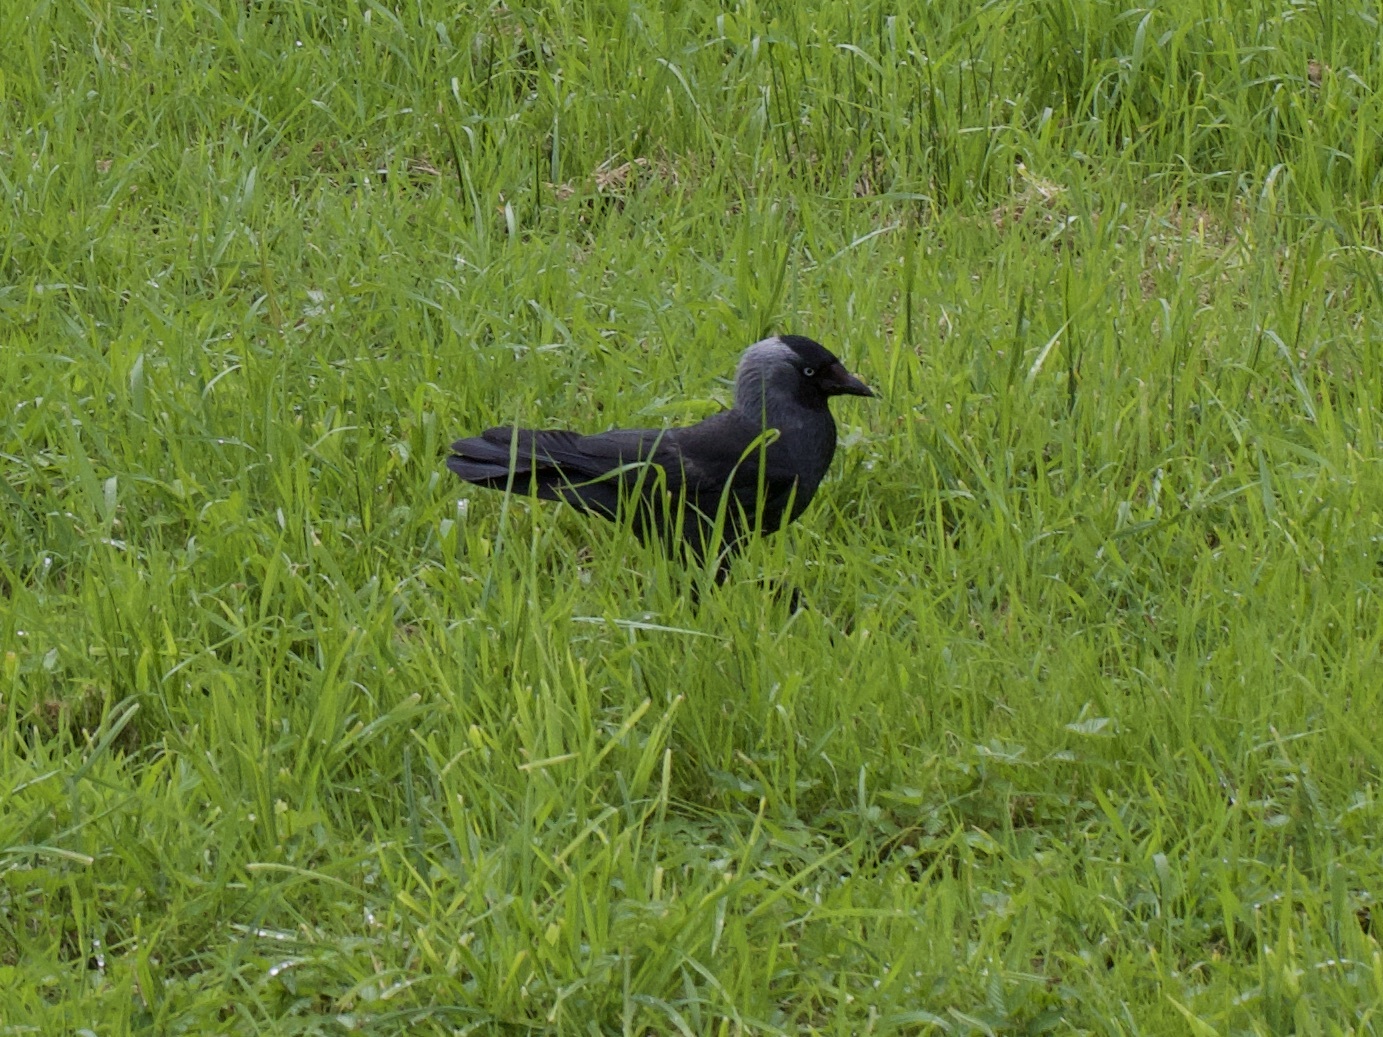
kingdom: Animalia
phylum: Chordata
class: Aves
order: Passeriformes
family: Corvidae
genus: Coloeus
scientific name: Coloeus monedula
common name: Western jackdaw
